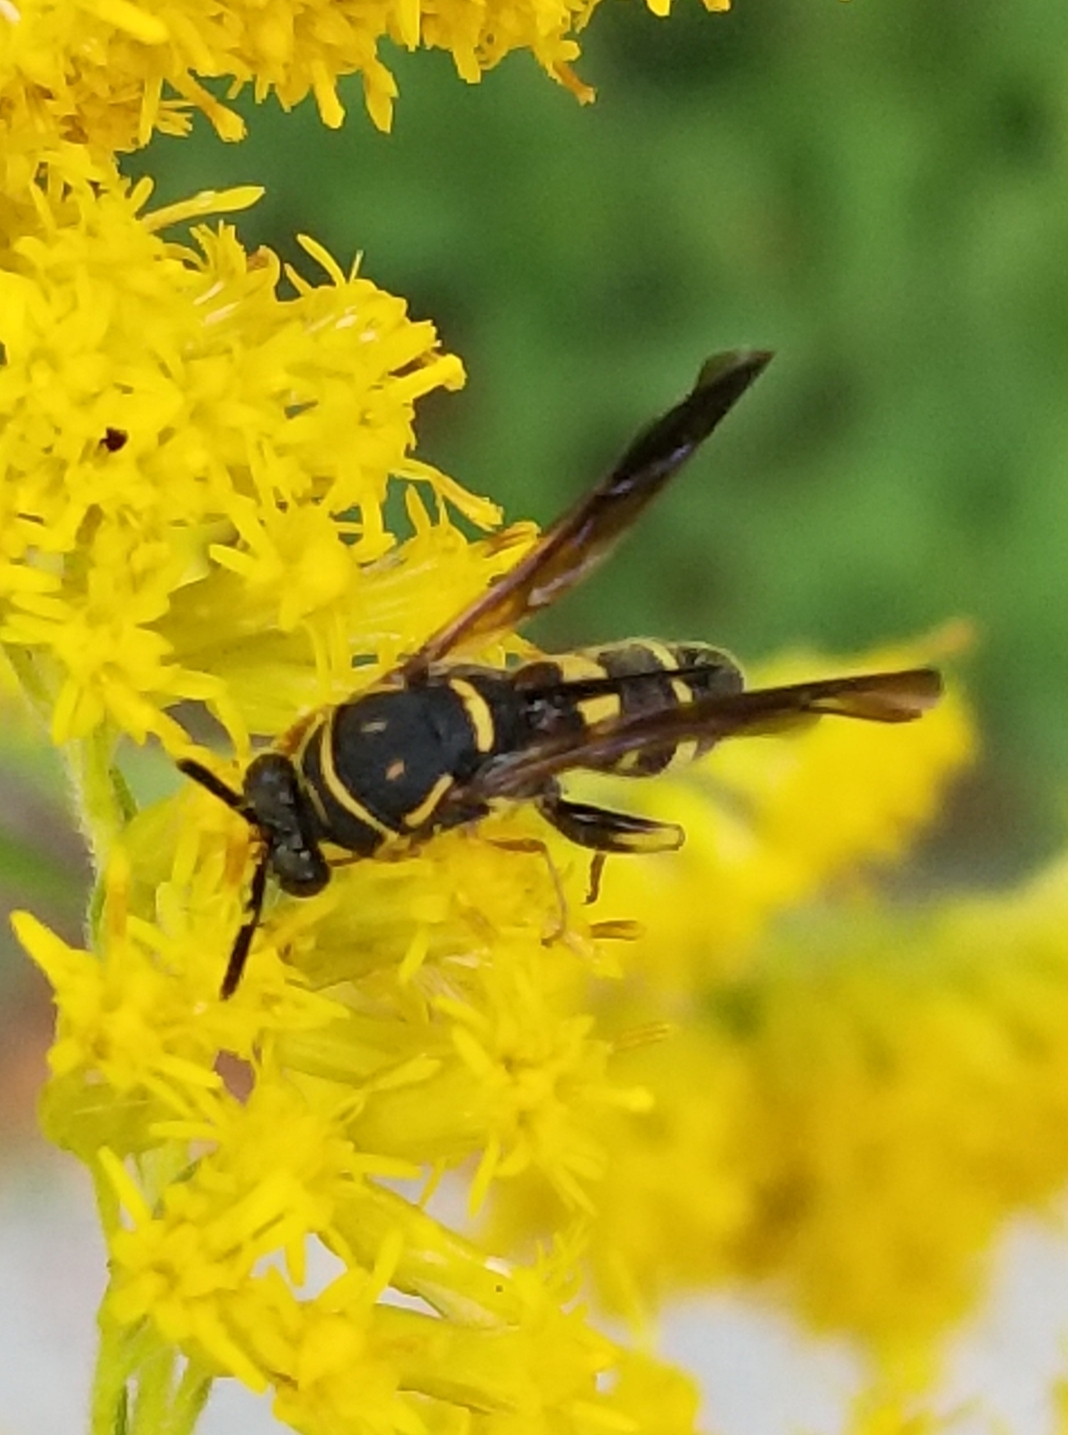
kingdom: Animalia
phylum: Arthropoda
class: Insecta
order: Hymenoptera
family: Leucospidae
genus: Leucospis
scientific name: Leucospis affinis
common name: Wasp
